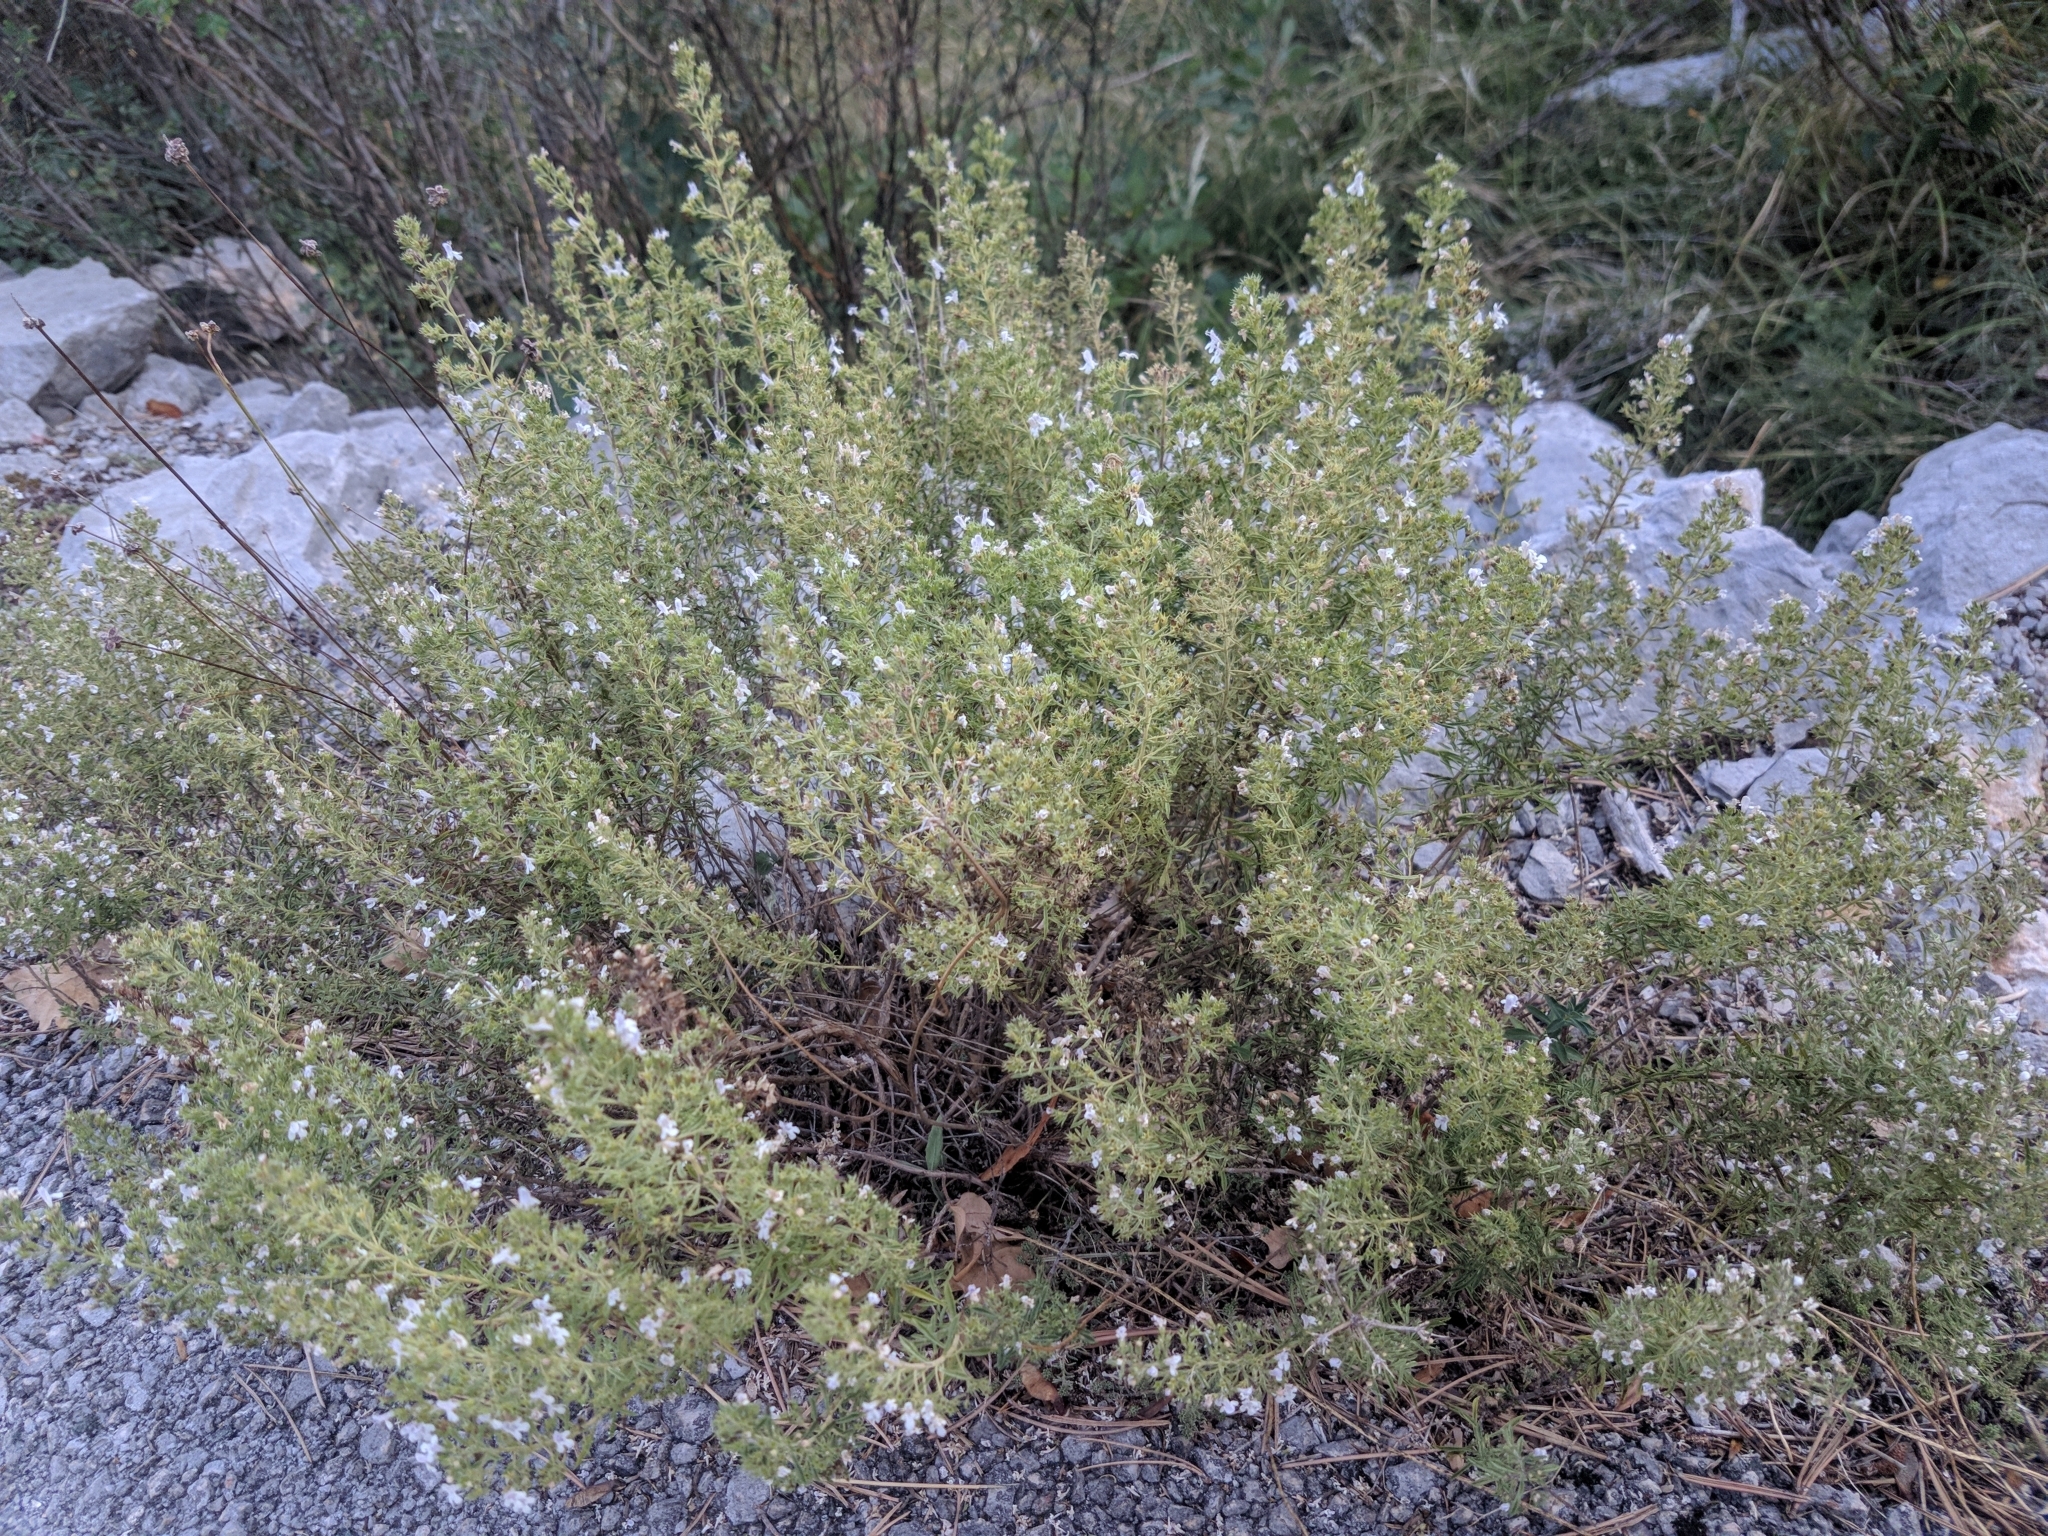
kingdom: Plantae
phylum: Tracheophyta
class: Magnoliopsida
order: Lamiales
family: Lamiaceae
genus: Satureja
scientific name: Satureja montana
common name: Winter savory
